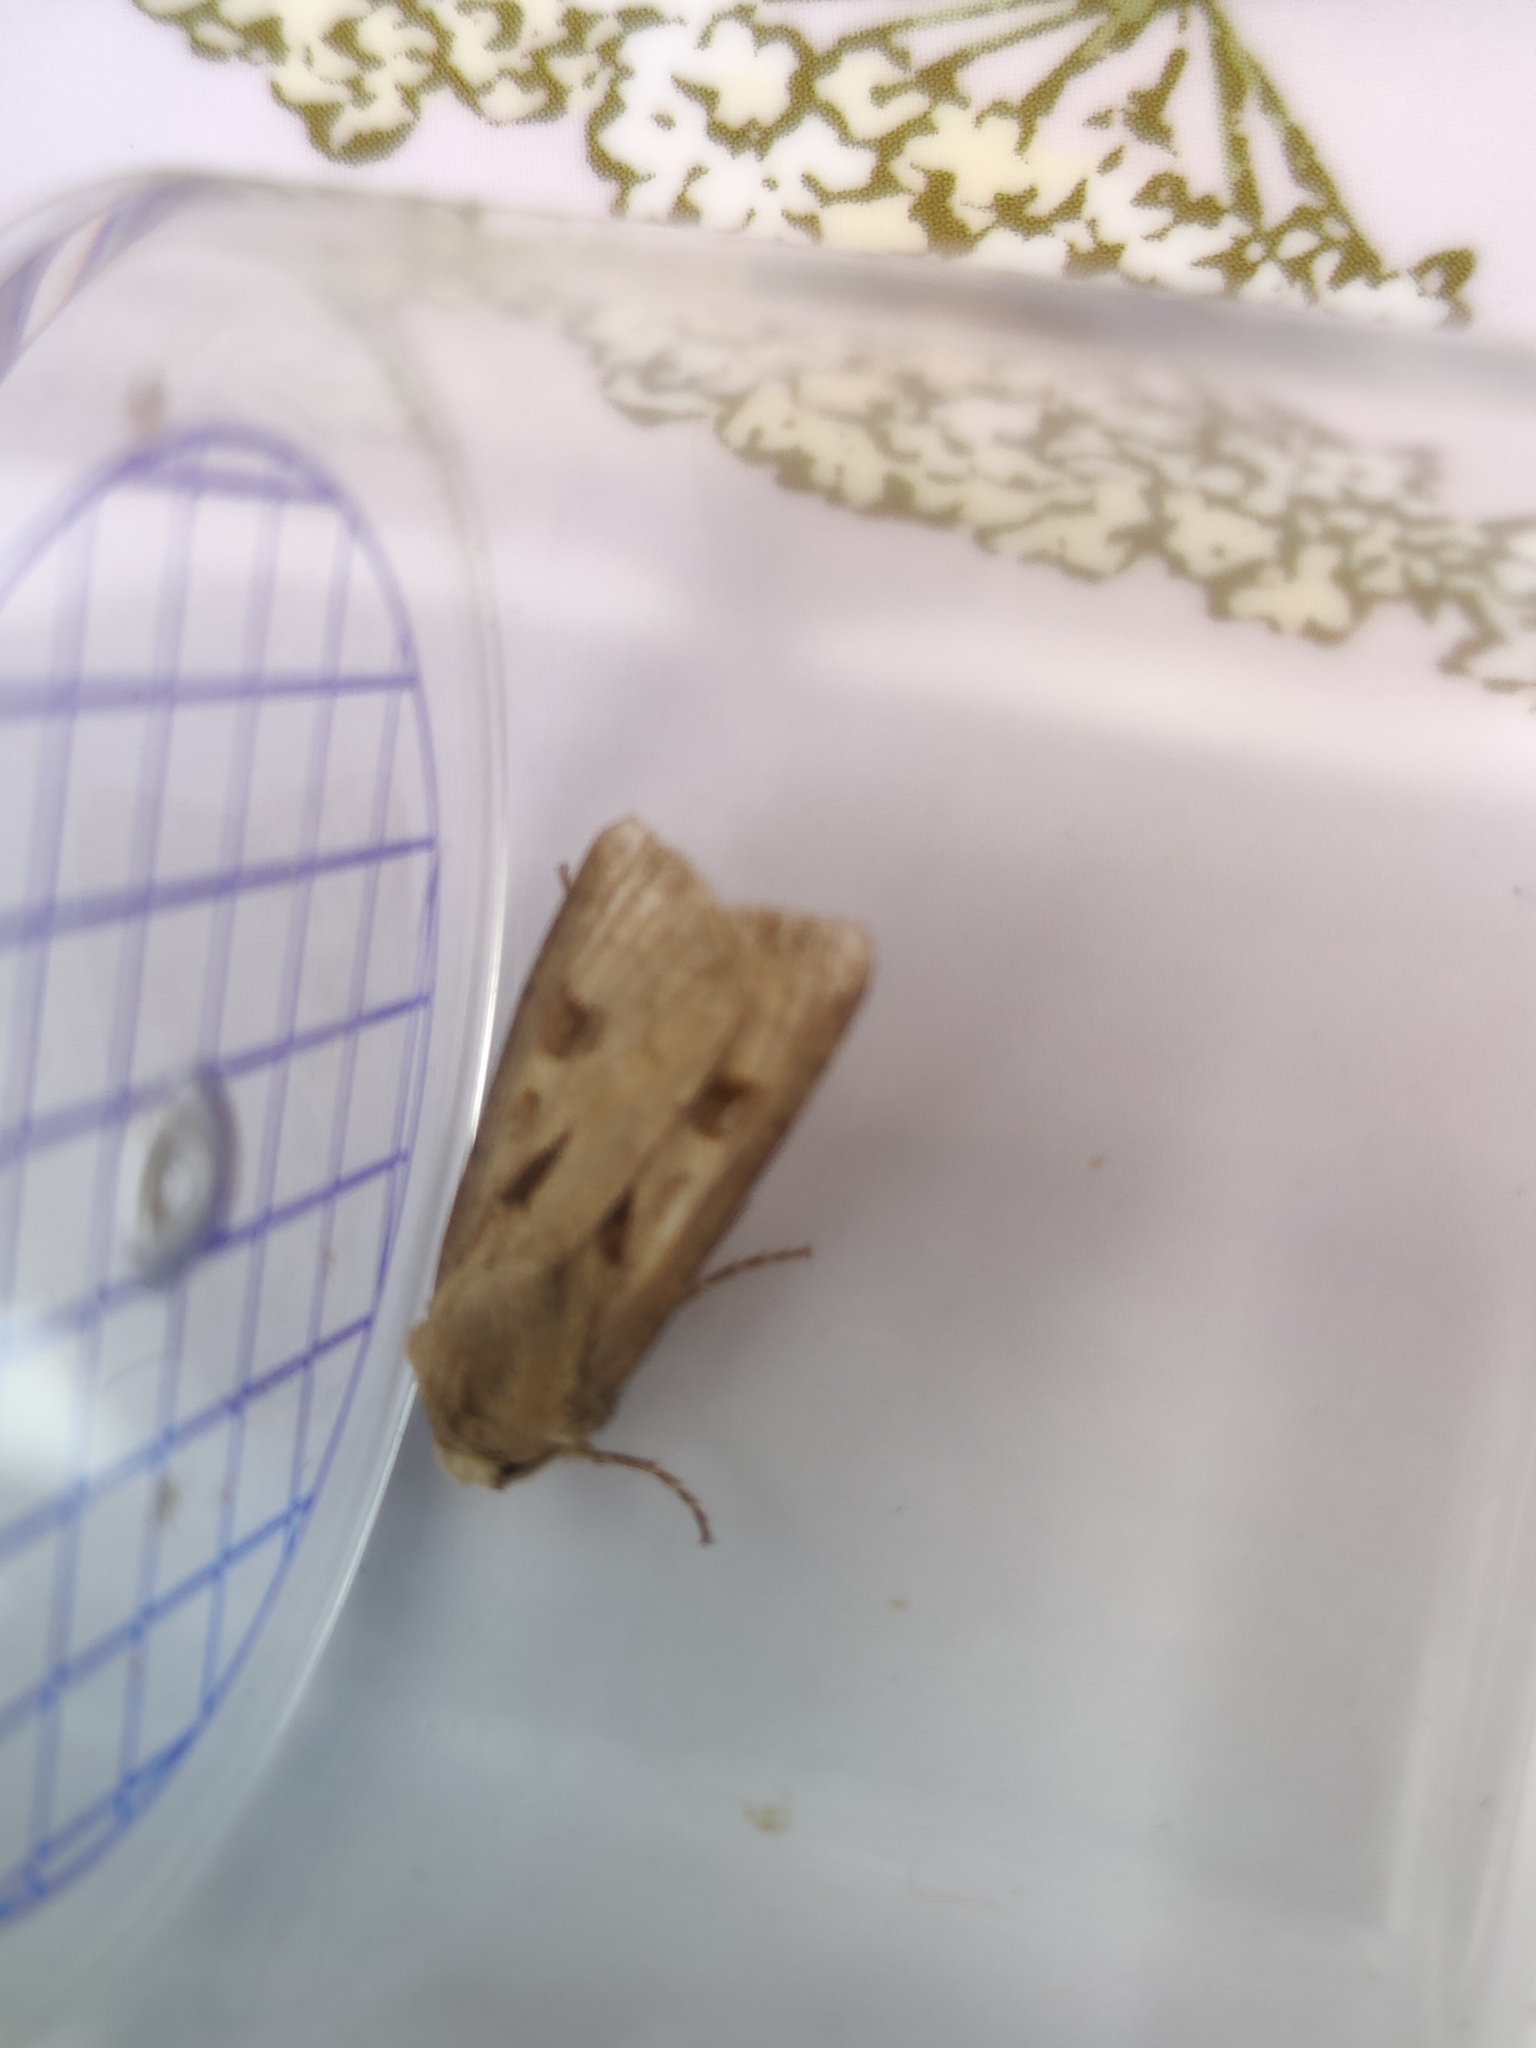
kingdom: Animalia
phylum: Arthropoda
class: Insecta
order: Lepidoptera
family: Noctuidae
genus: Agrotis
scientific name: Agrotis exclamationis
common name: Heart and dart
